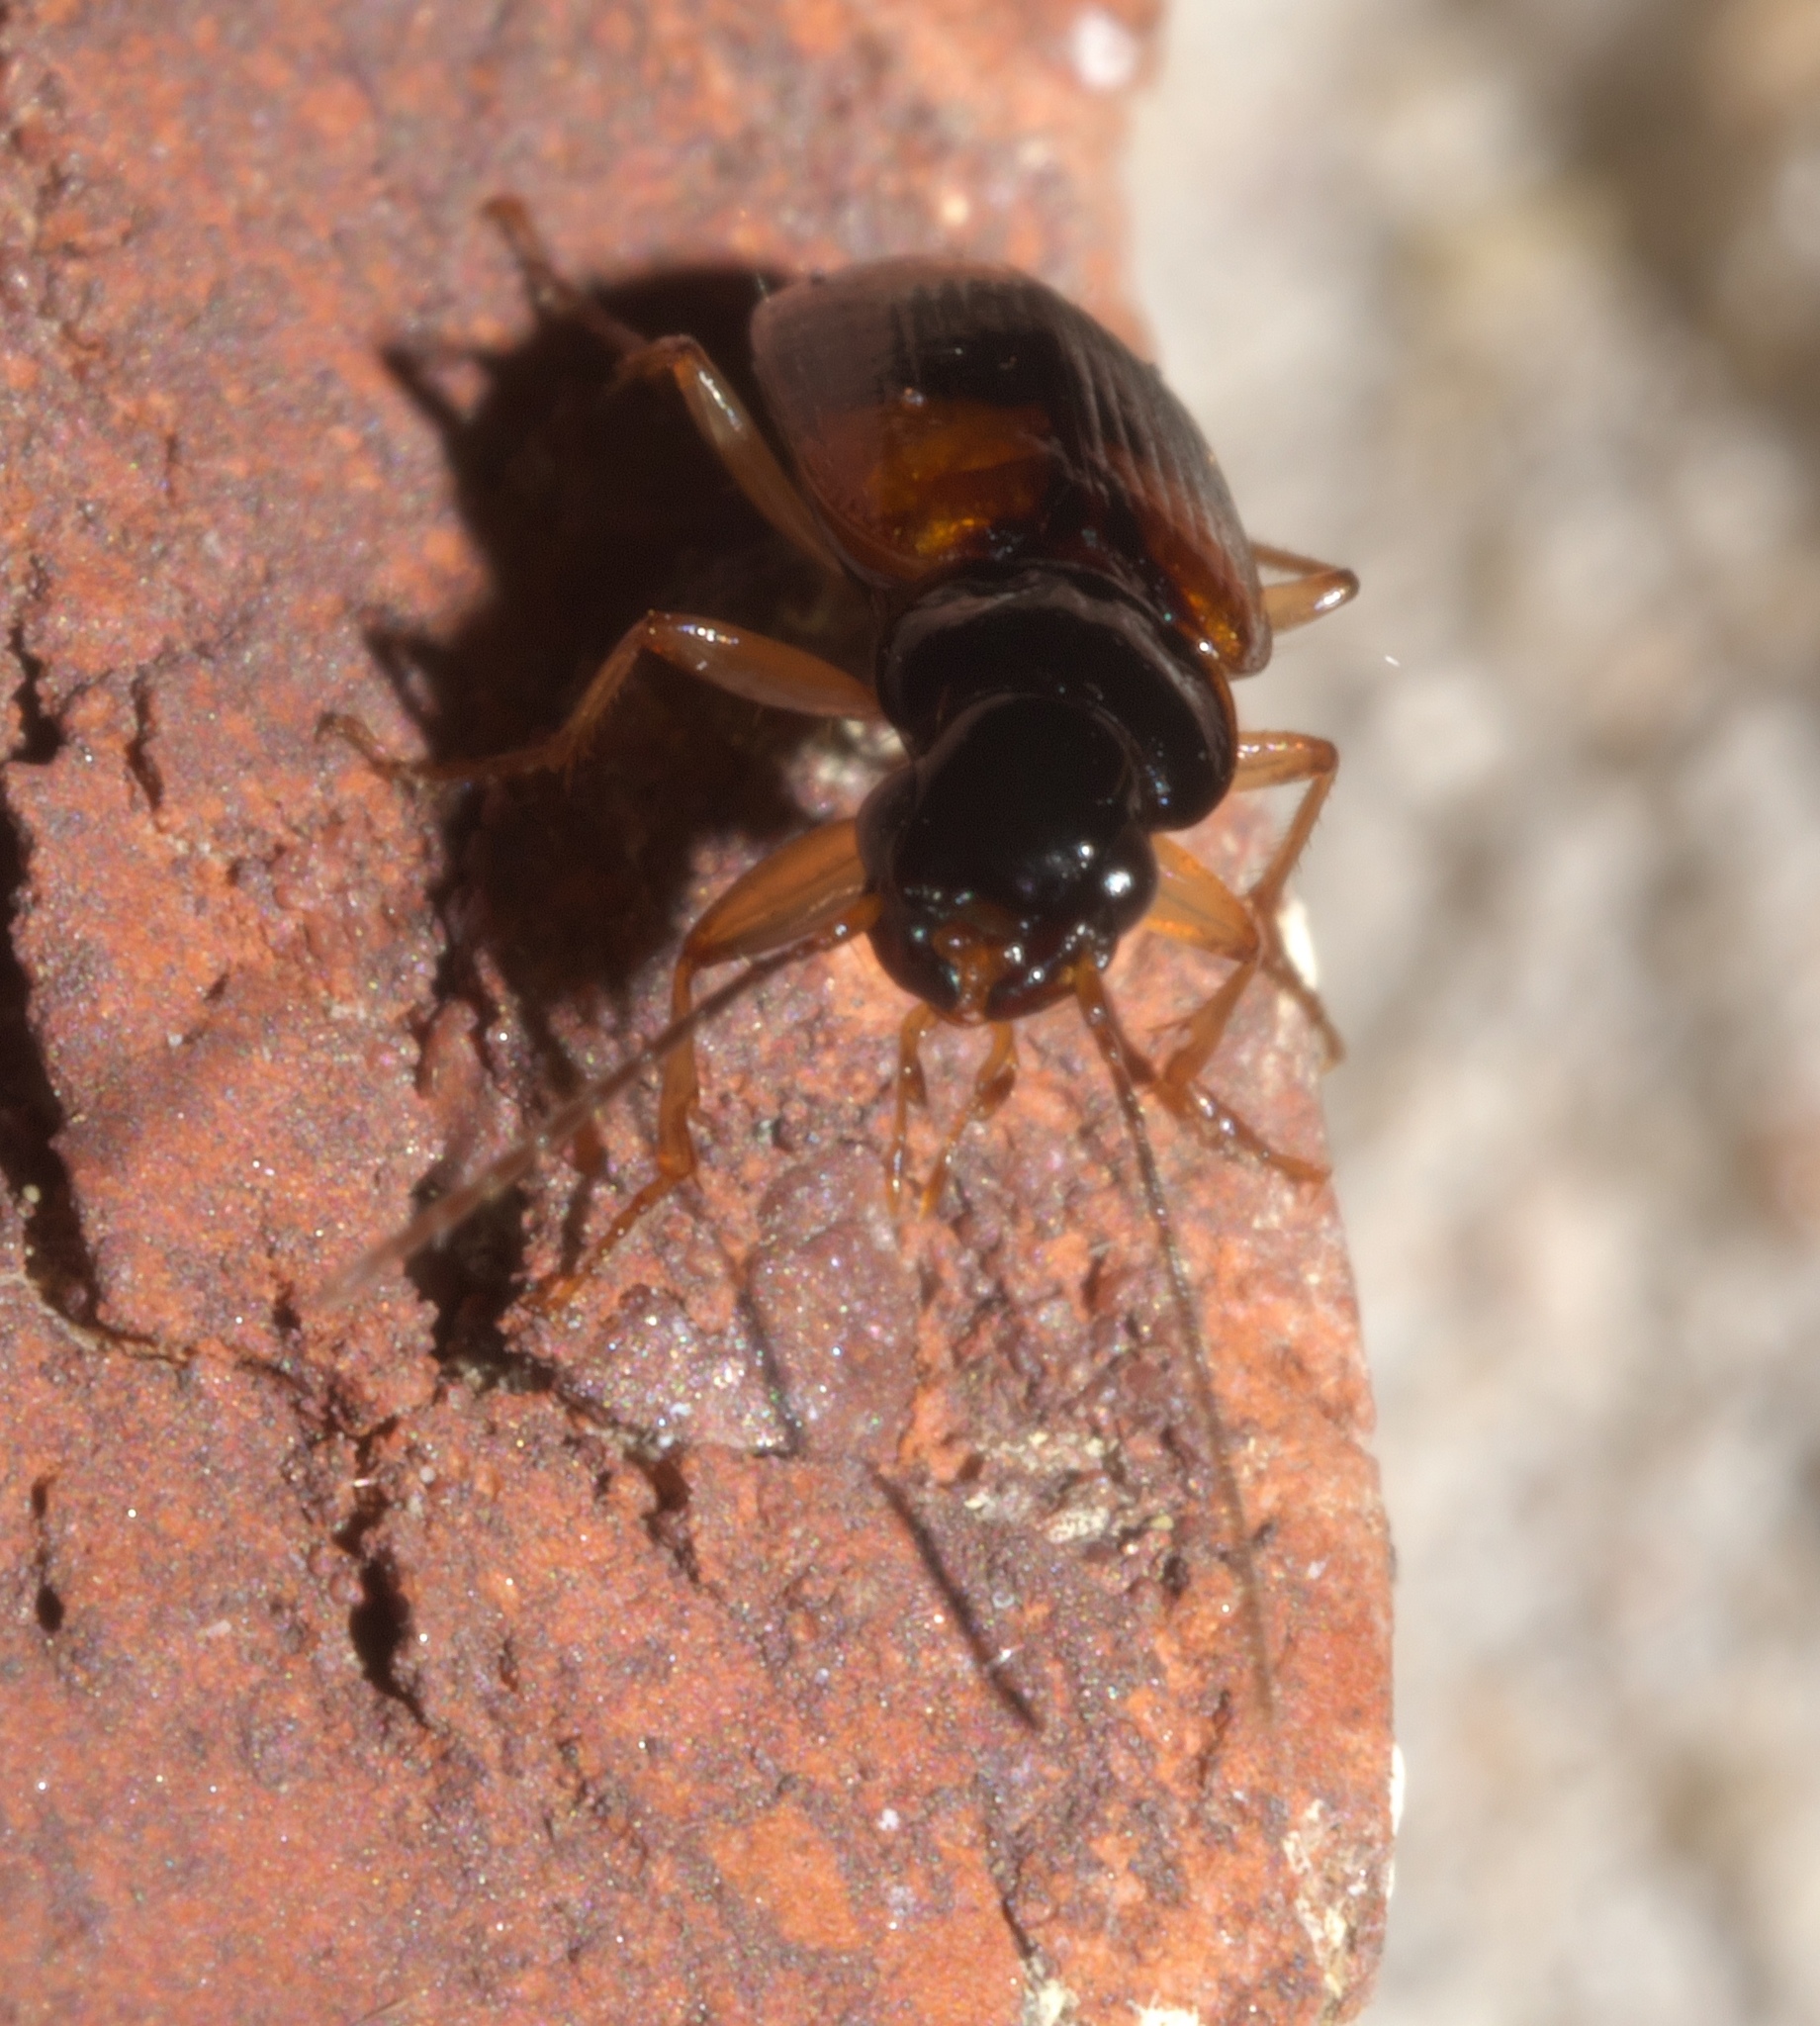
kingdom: Animalia
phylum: Arthropoda
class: Insecta
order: Coleoptera
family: Carabidae
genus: Badister
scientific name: Badister maculatus
